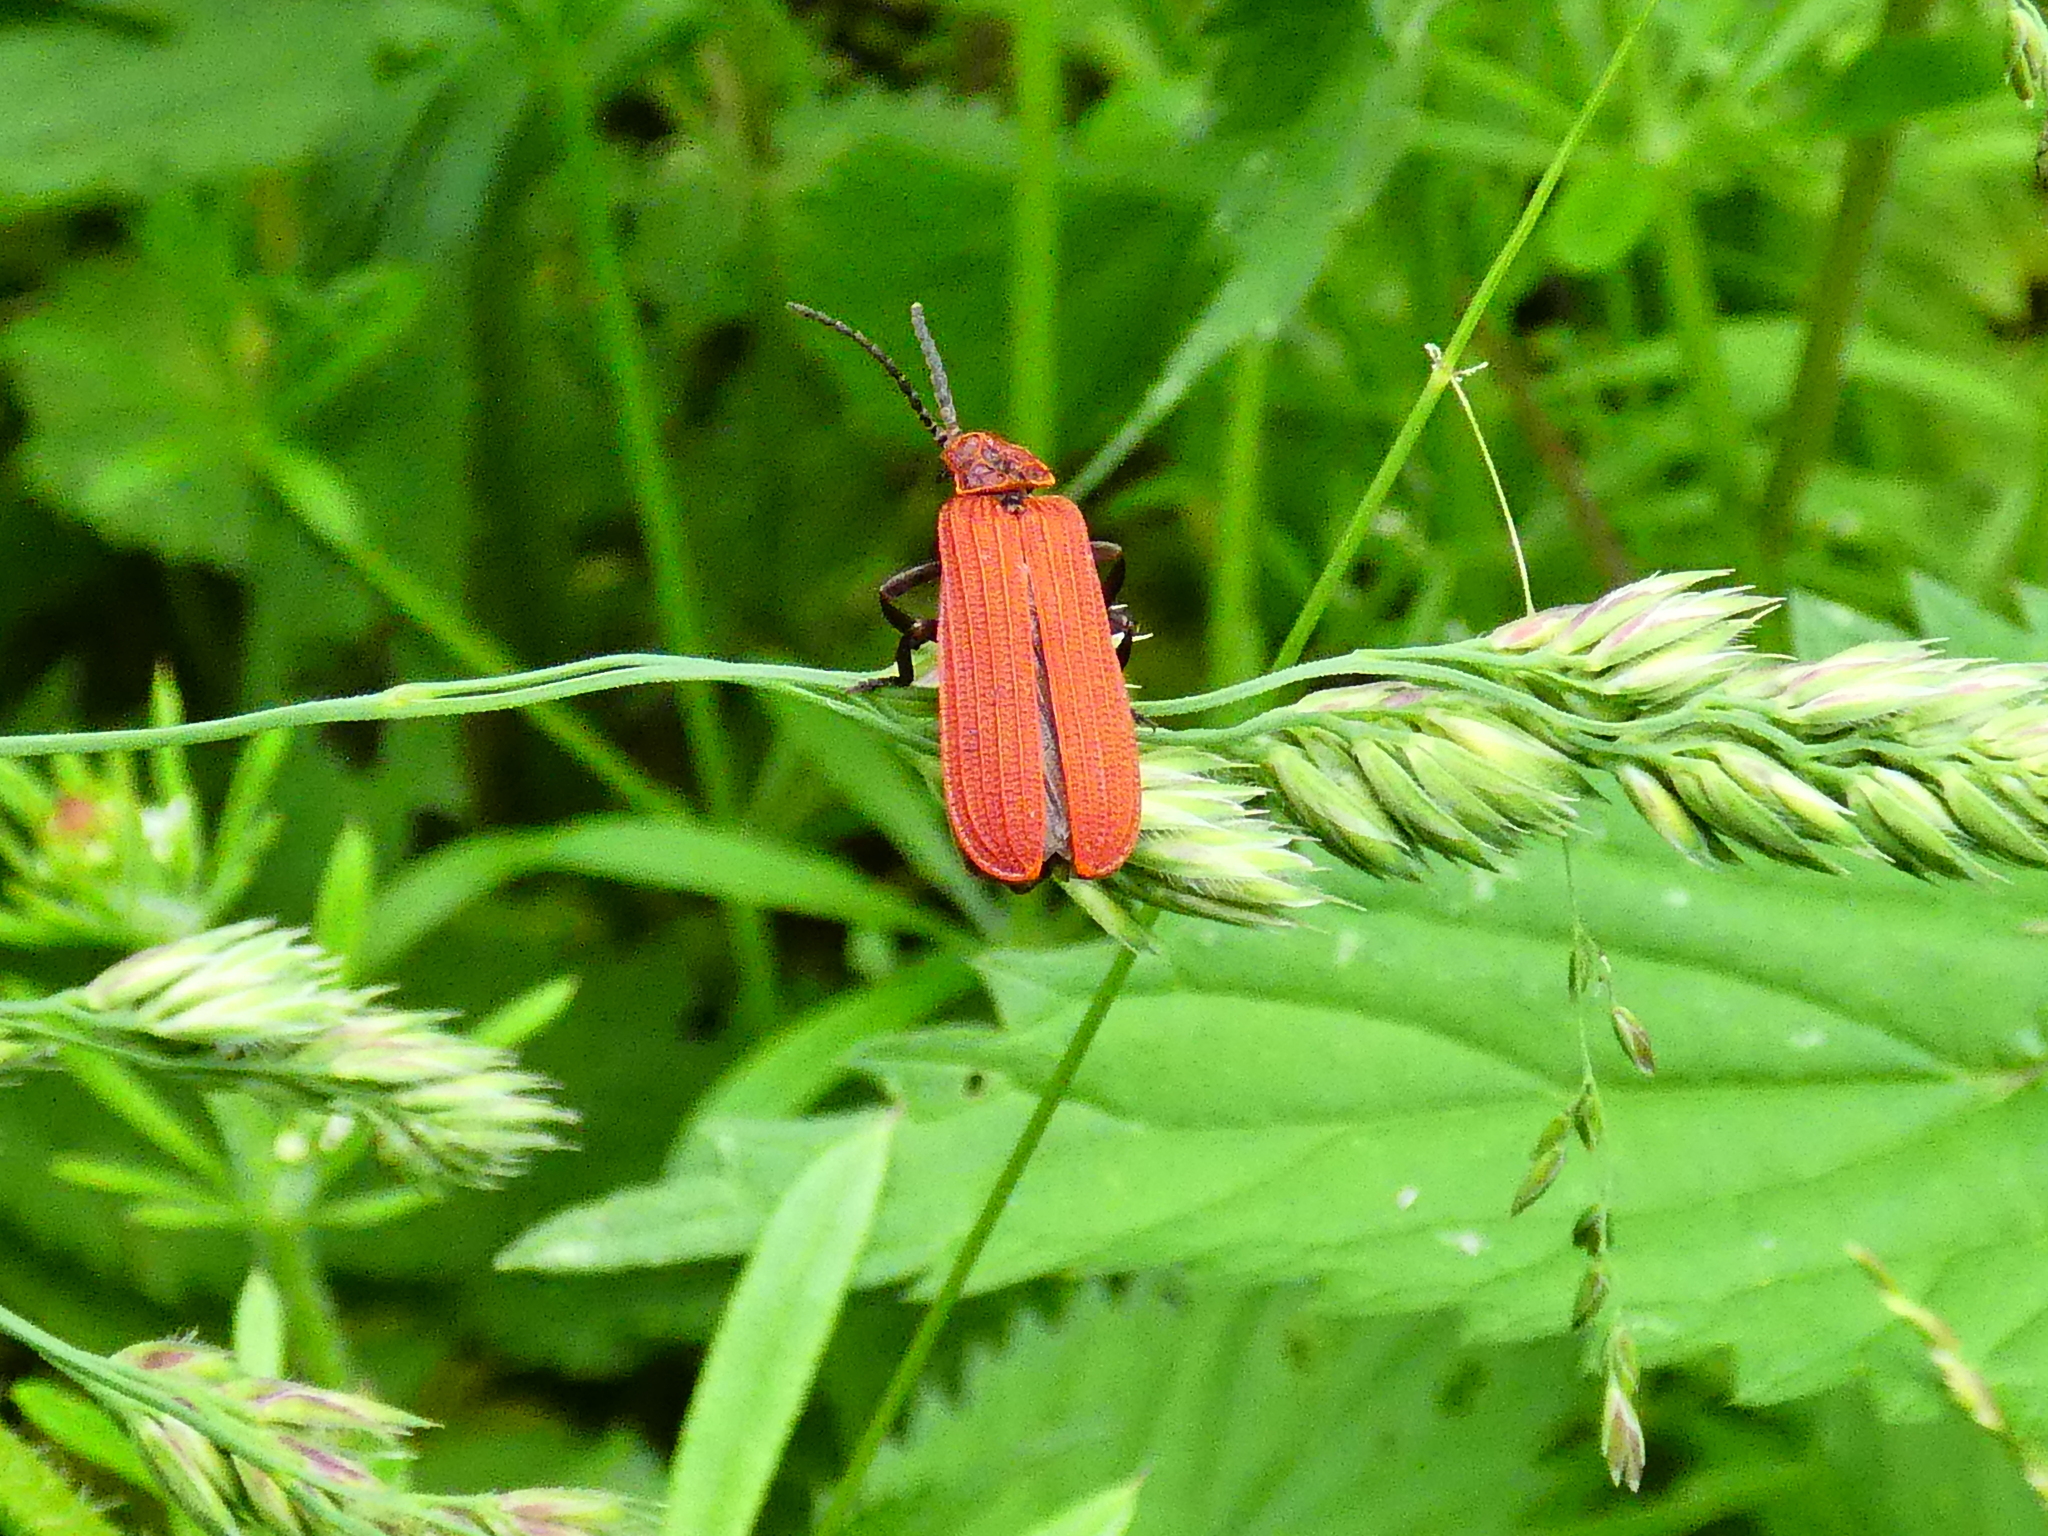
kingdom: Animalia
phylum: Arthropoda
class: Insecta
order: Coleoptera
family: Lycidae
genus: Dictyoptera
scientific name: Dictyoptera aurora
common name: Golden net-winged beetle
